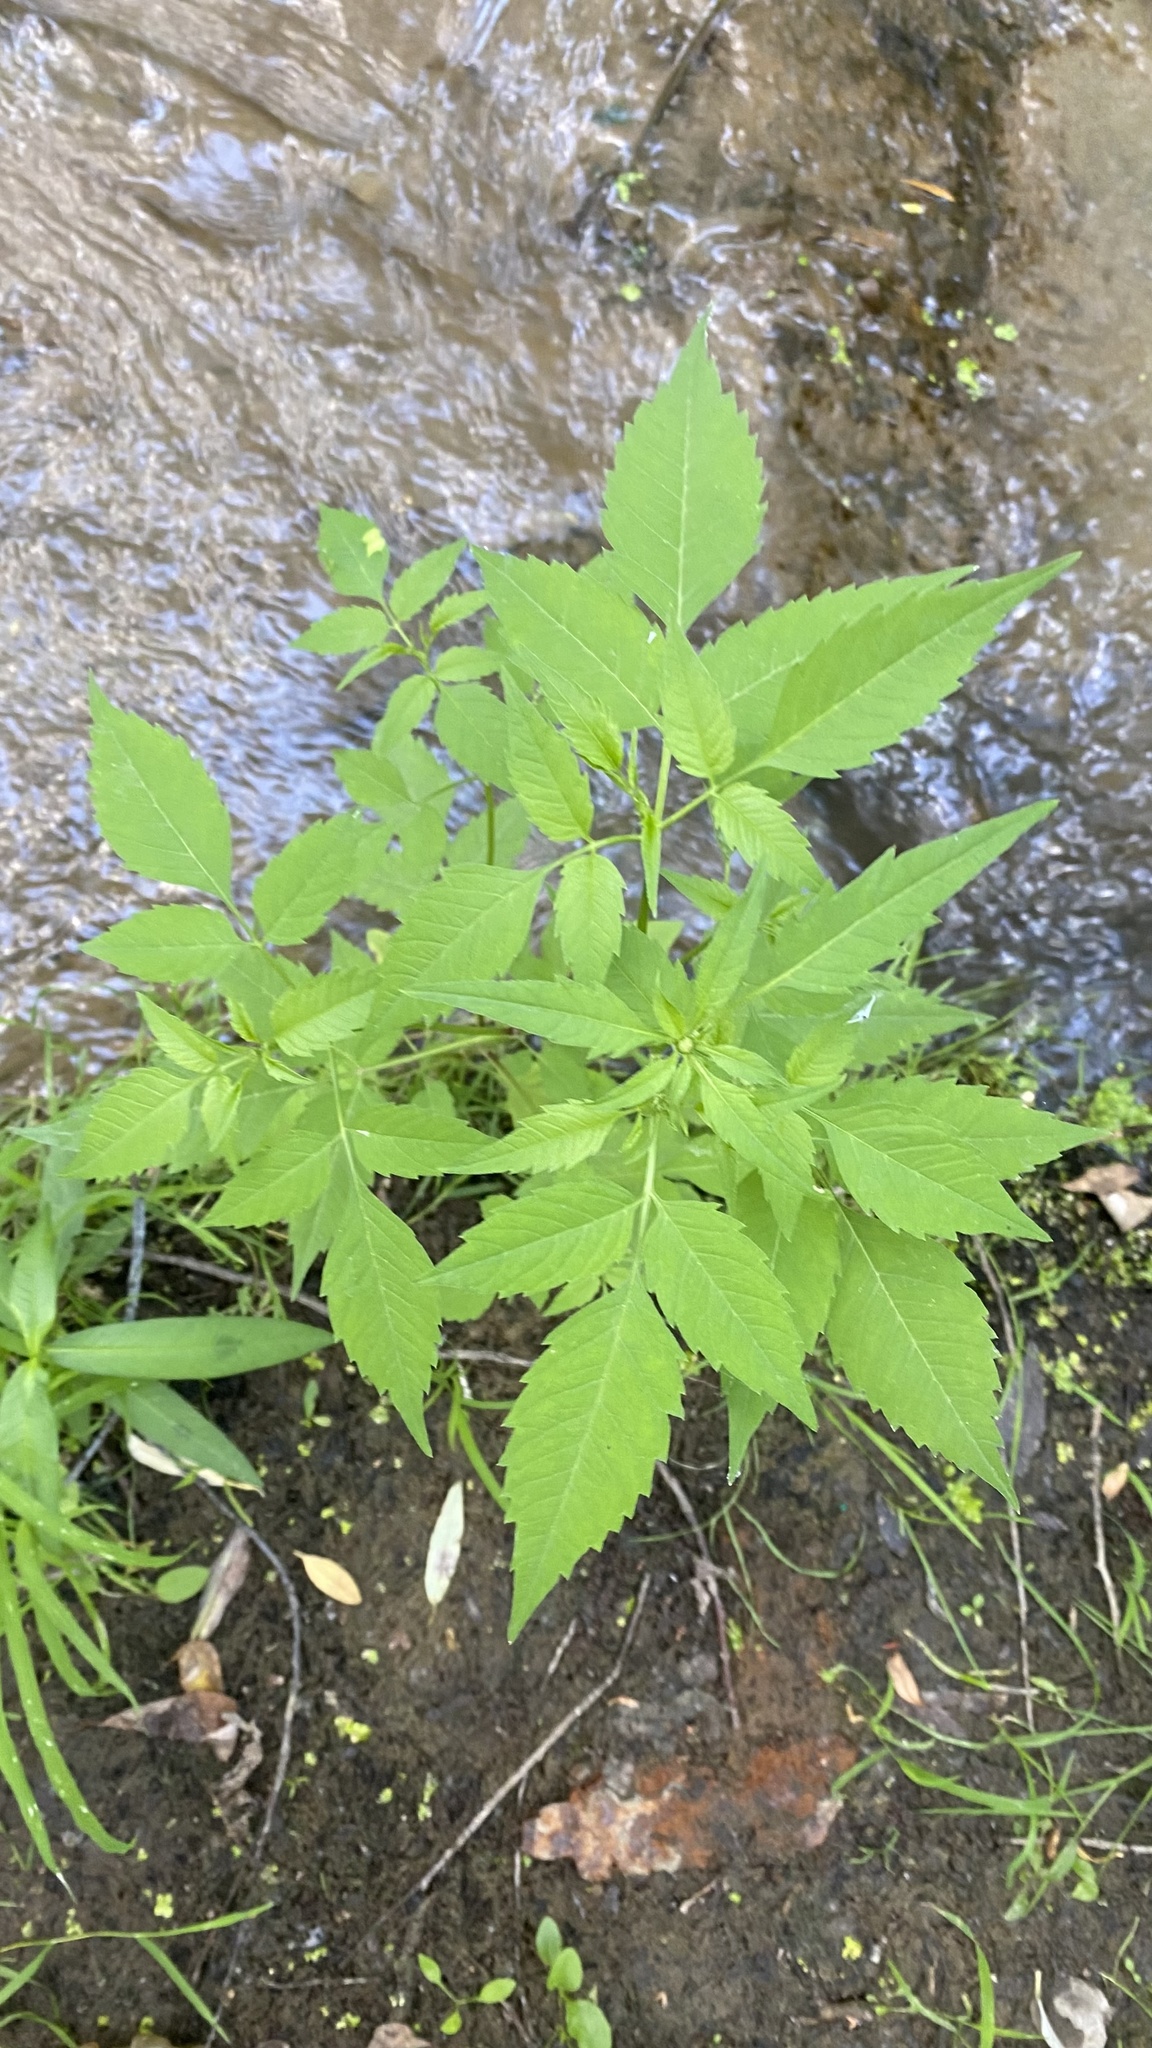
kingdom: Plantae
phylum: Tracheophyta
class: Magnoliopsida
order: Asterales
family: Asteraceae
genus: Bidens
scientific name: Bidens frondosa
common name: Beggarticks
